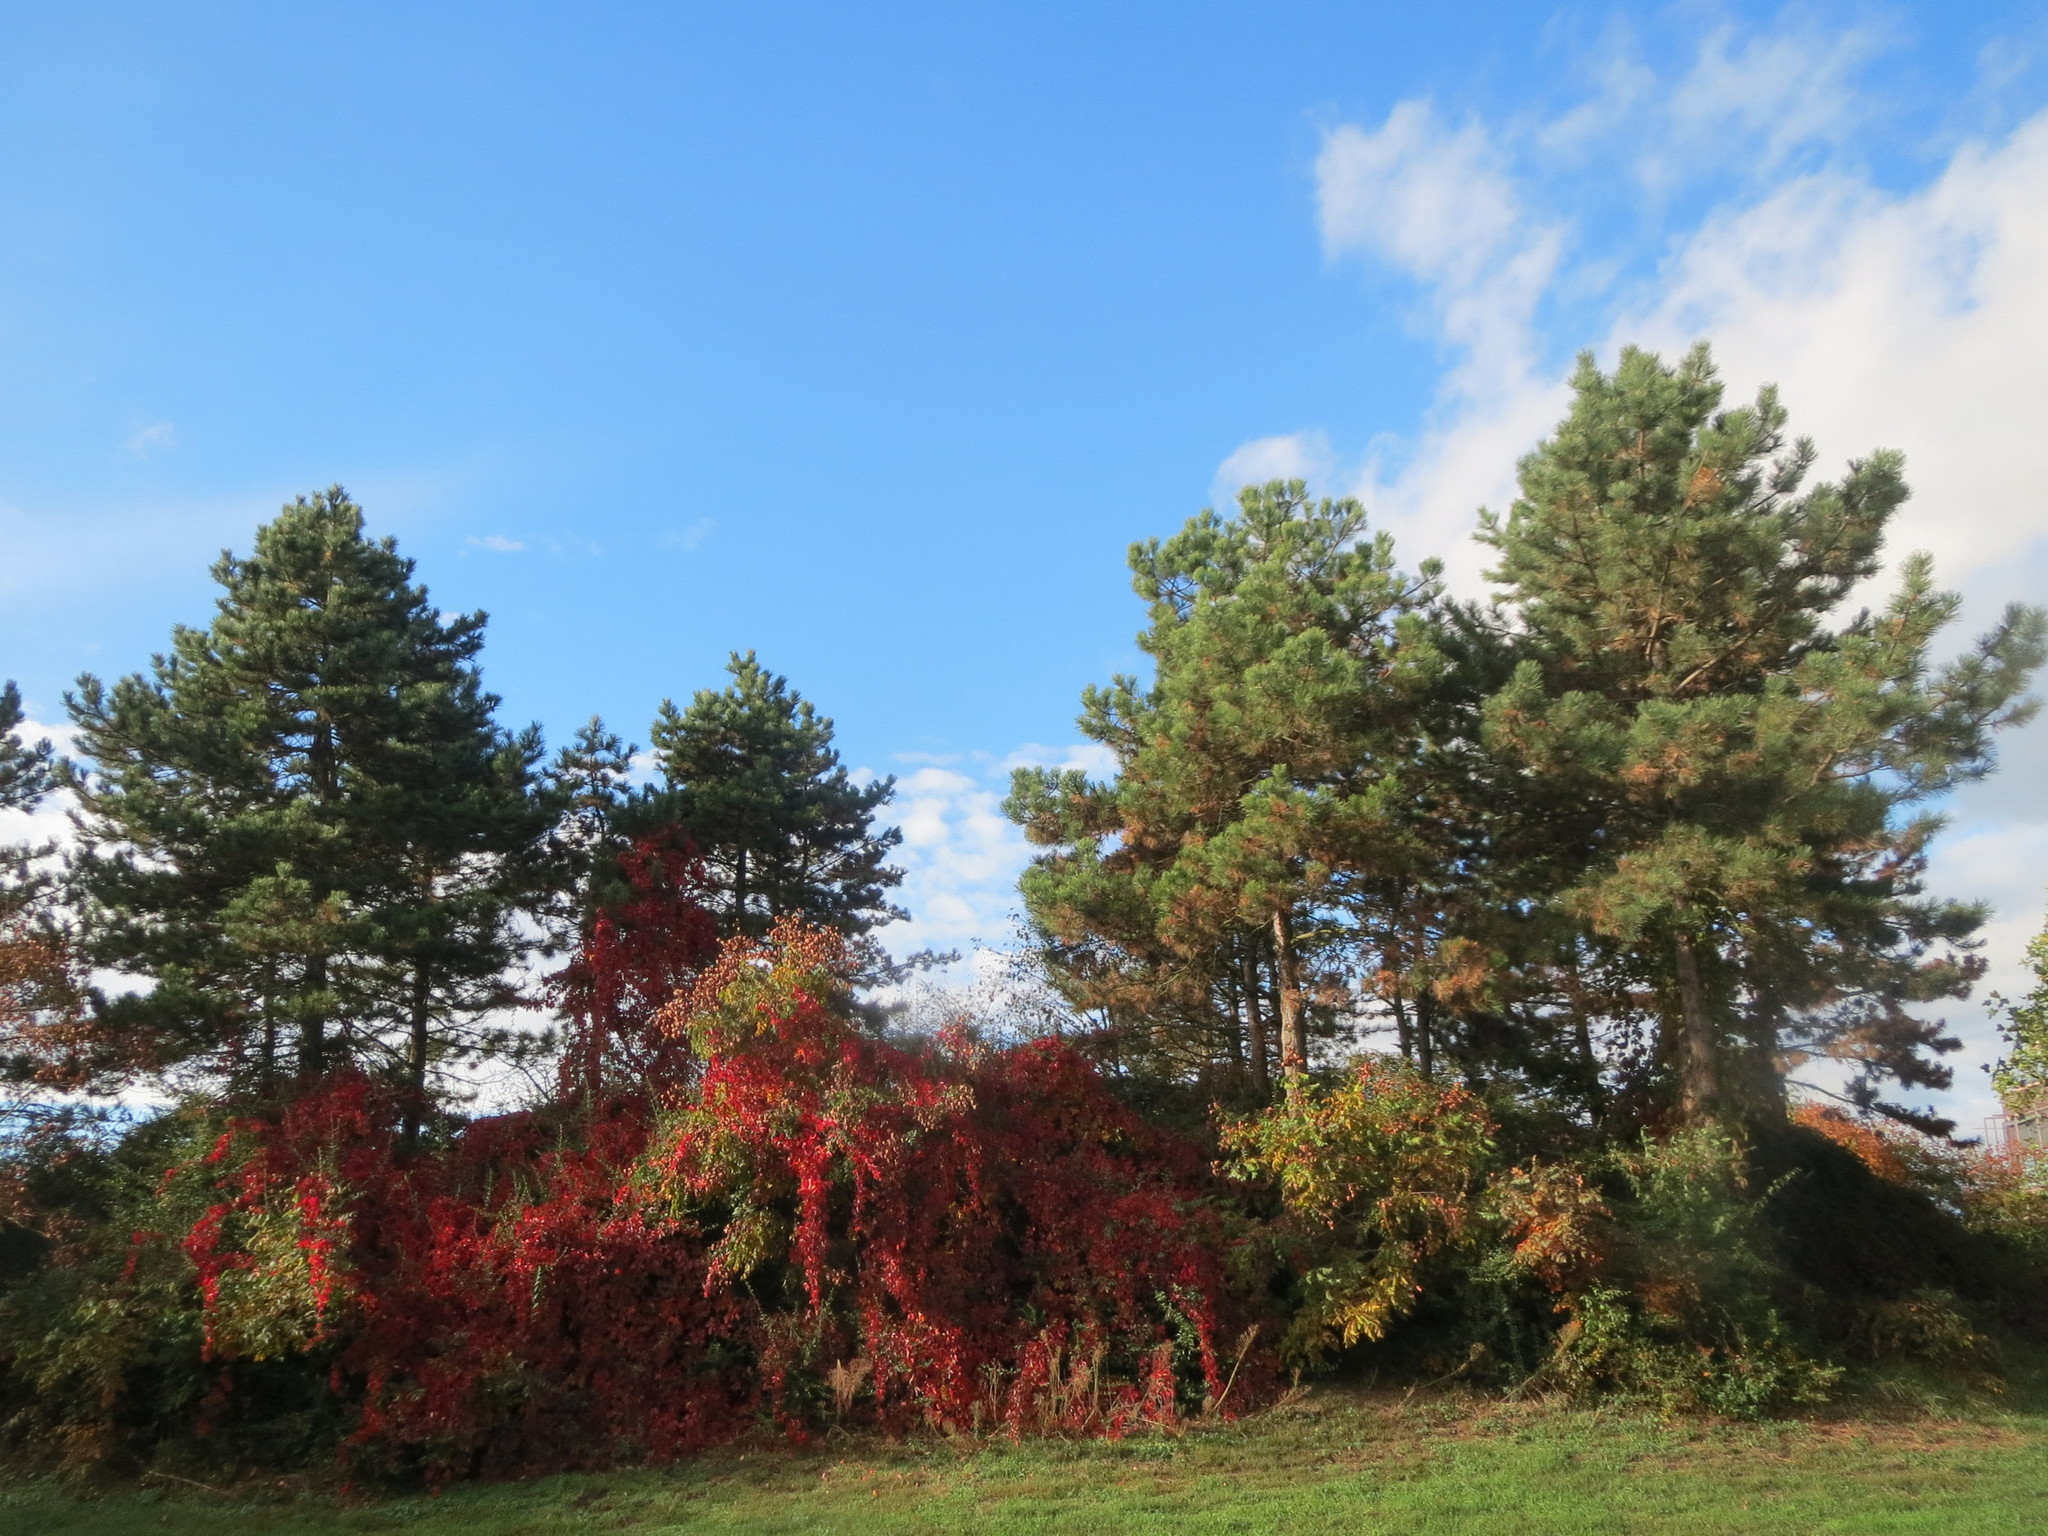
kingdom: Plantae
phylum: Tracheophyta
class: Magnoliopsida
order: Vitales
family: Vitaceae
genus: Parthenocissus
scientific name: Parthenocissus quinquefolia
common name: Virginia-creeper
